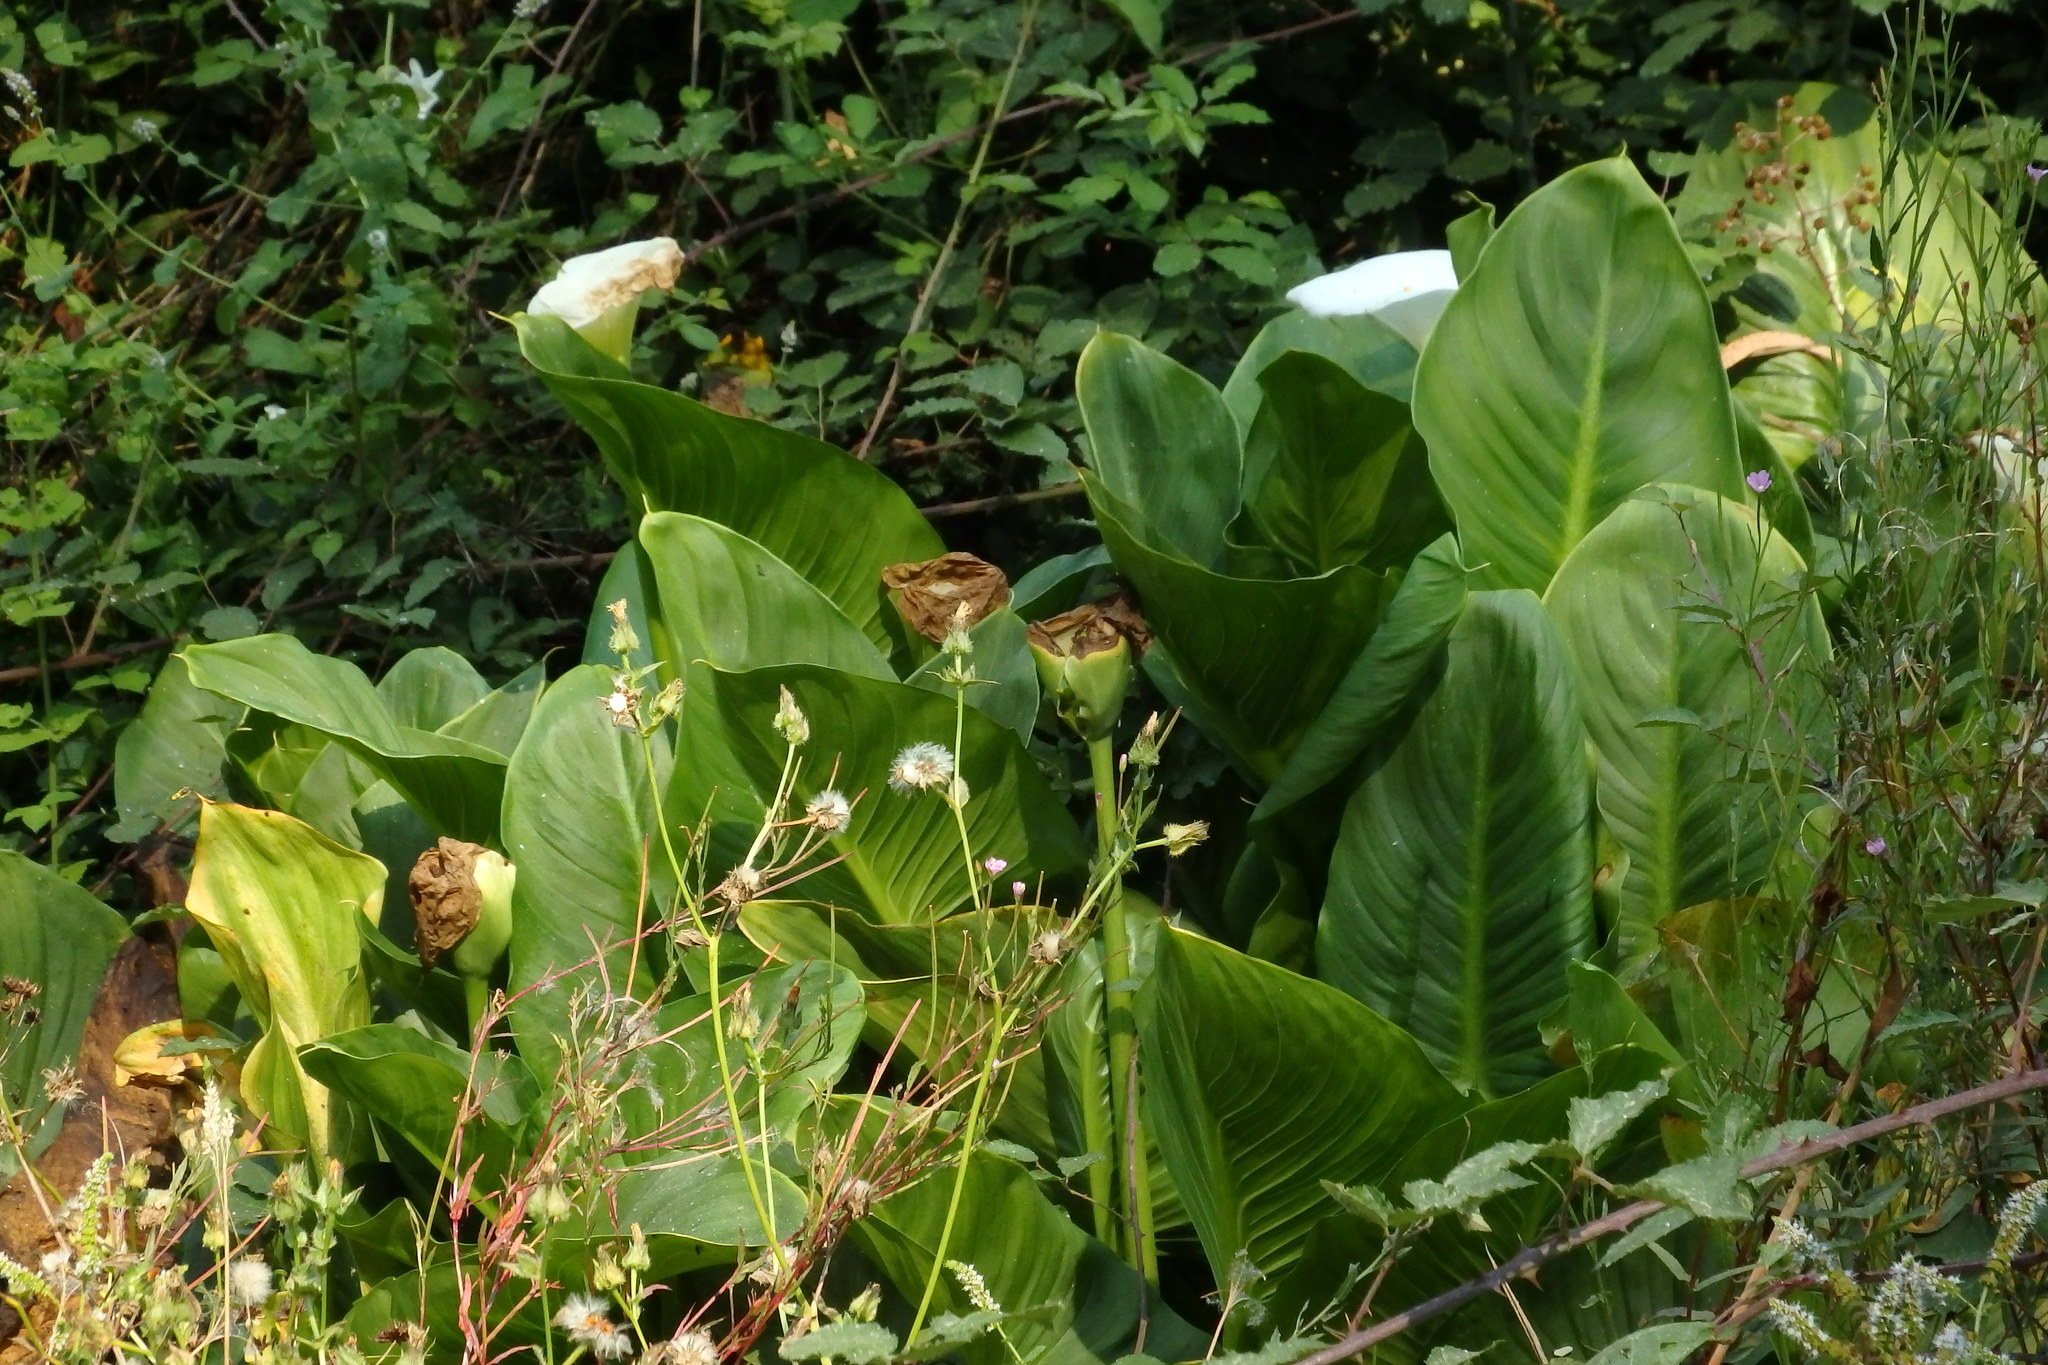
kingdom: Plantae
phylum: Tracheophyta
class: Liliopsida
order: Alismatales
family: Araceae
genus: Zantedeschia
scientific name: Zantedeschia aethiopica
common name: Altar-lily
